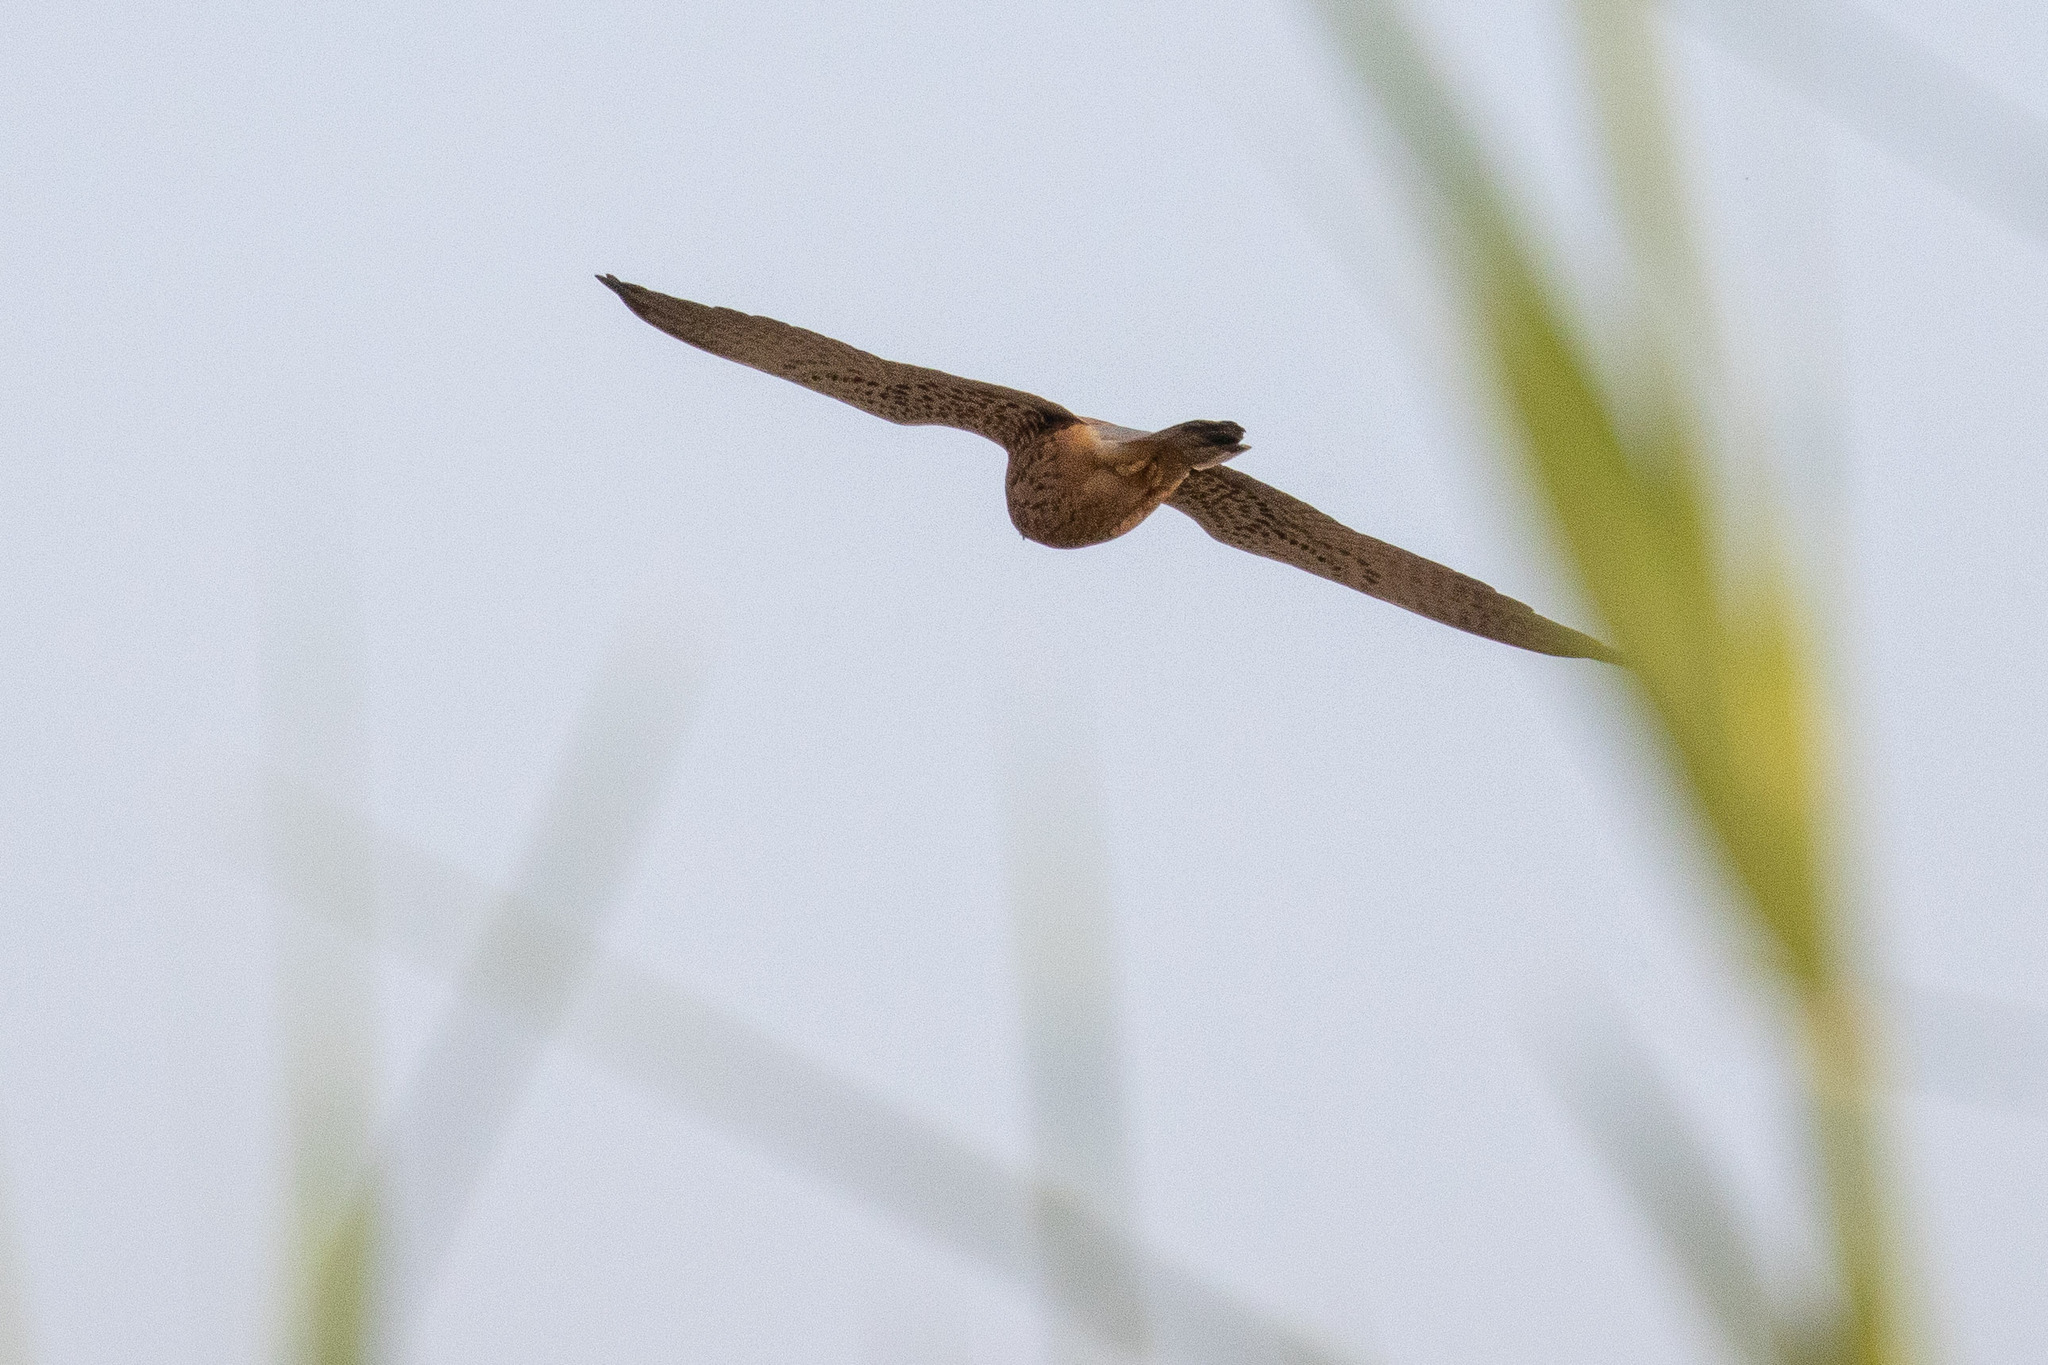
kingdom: Animalia
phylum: Chordata
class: Aves
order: Falconiformes
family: Falconidae
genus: Falco
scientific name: Falco tinnunculus
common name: Common kestrel
